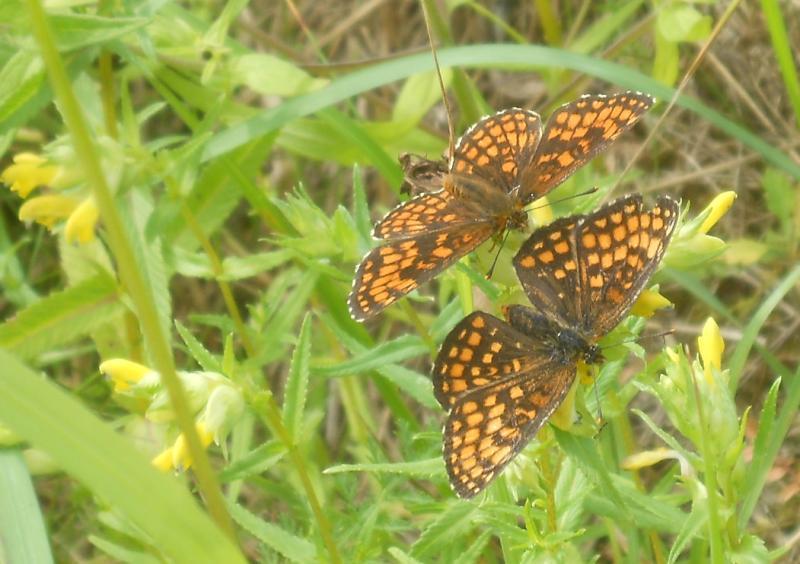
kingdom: Animalia
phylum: Arthropoda
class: Insecta
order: Lepidoptera
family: Nymphalidae
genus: Melitaea
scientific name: Melitaea athalia
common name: Heath fritillary
